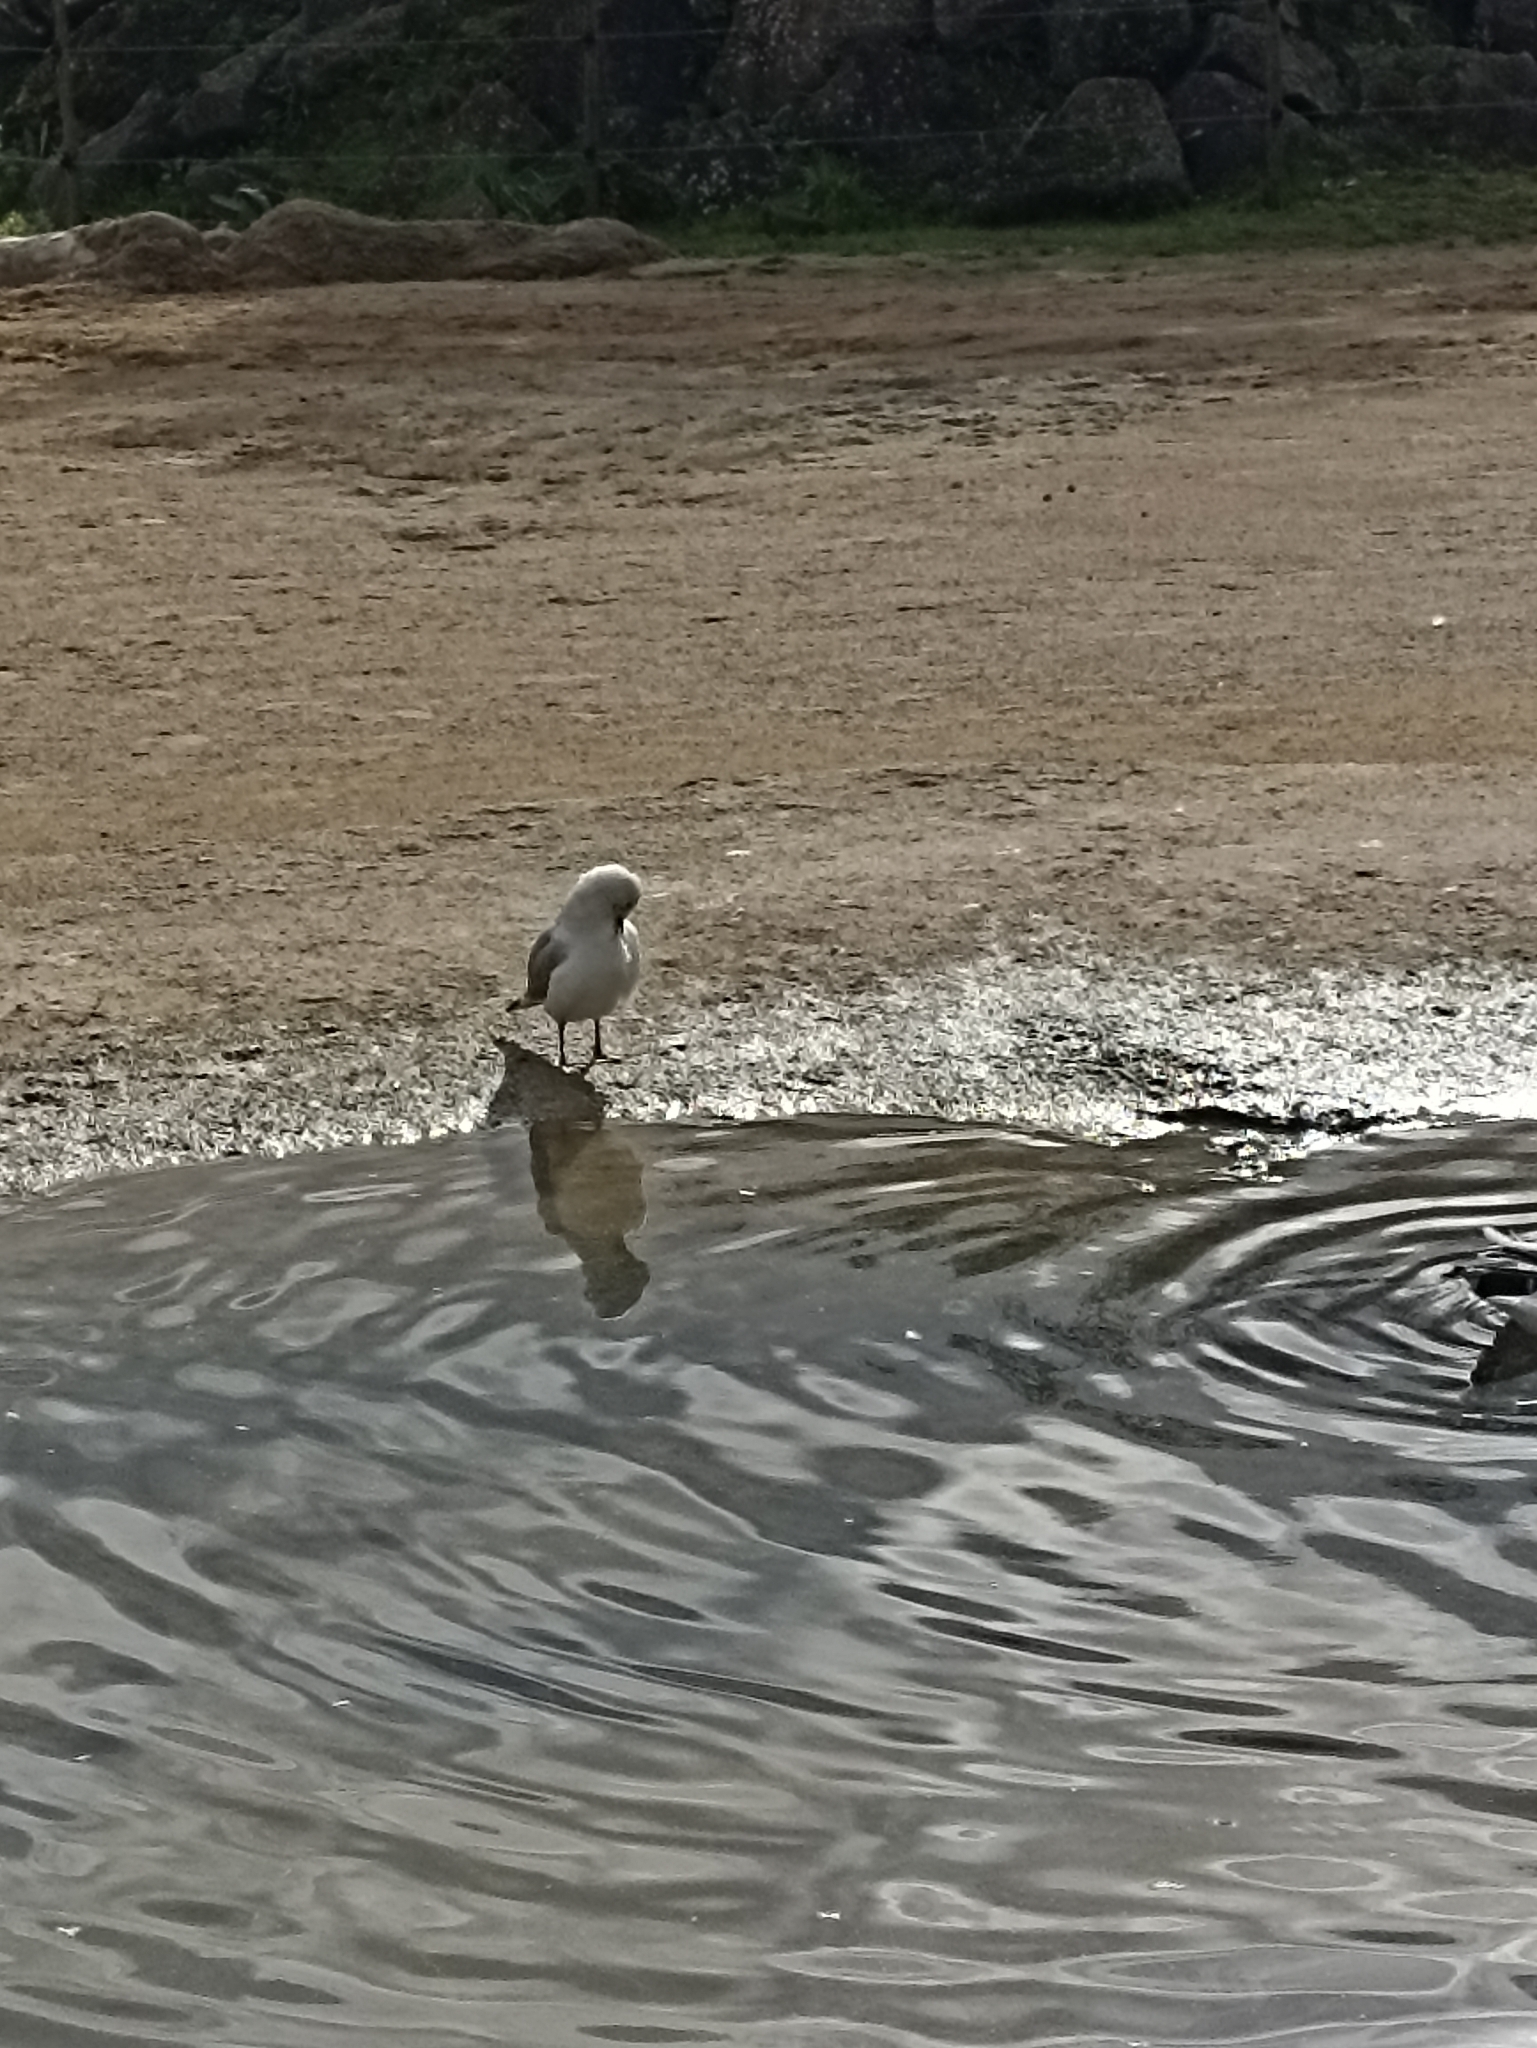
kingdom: Animalia
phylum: Chordata
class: Aves
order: Charadriiformes
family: Laridae
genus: Chroicocephalus
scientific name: Chroicocephalus novaehollandiae
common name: Silver gull
